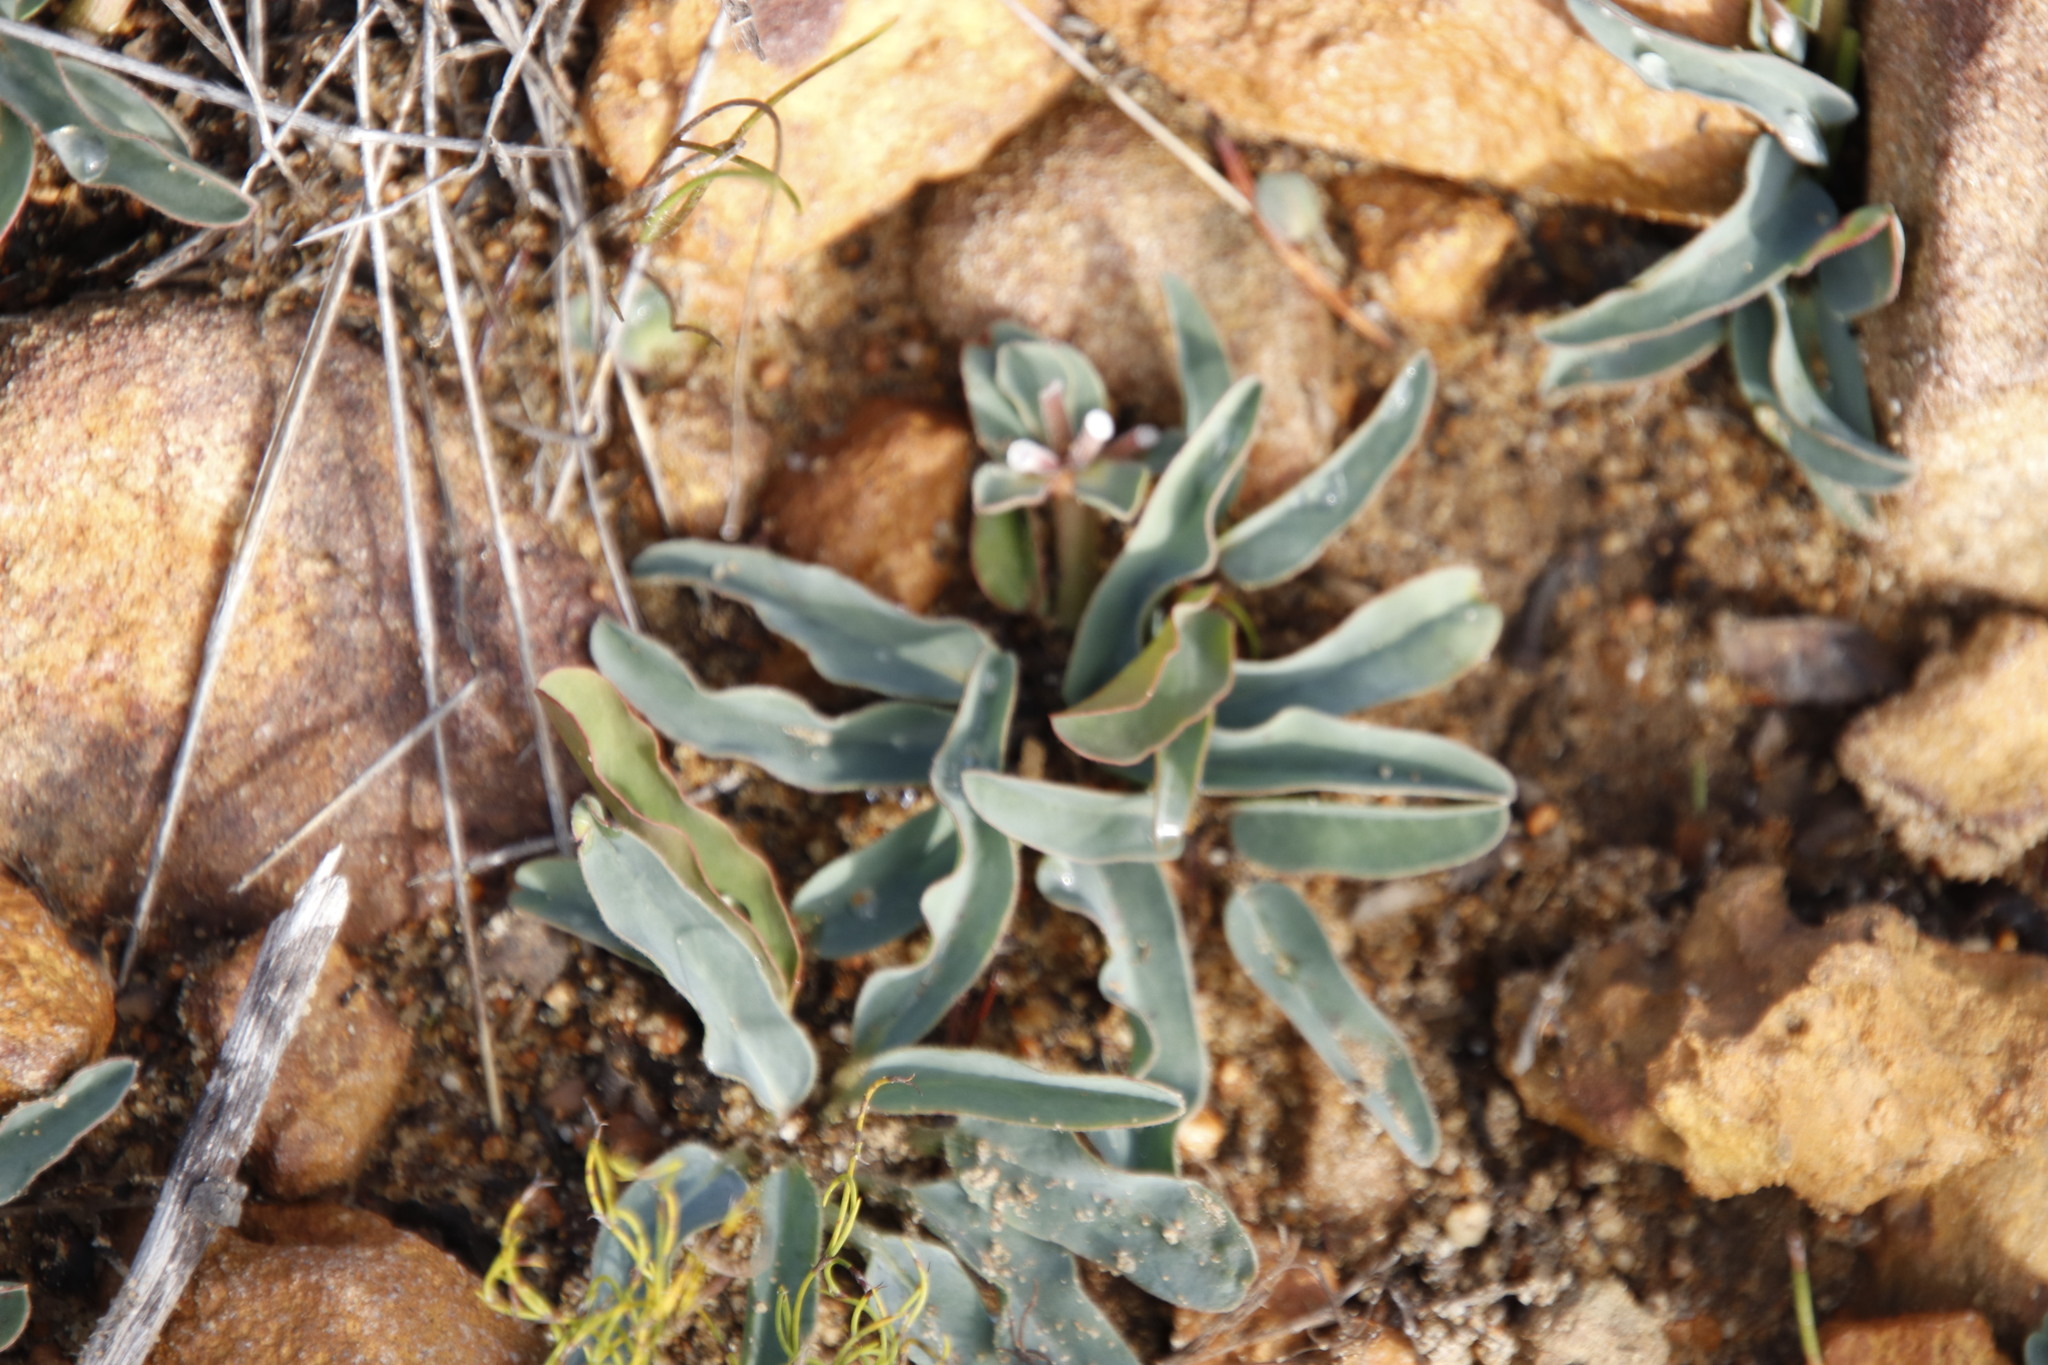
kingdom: Plantae
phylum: Tracheophyta
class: Magnoliopsida
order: Malpighiales
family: Euphorbiaceae
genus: Euphorbia
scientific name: Euphorbia tuberosa
